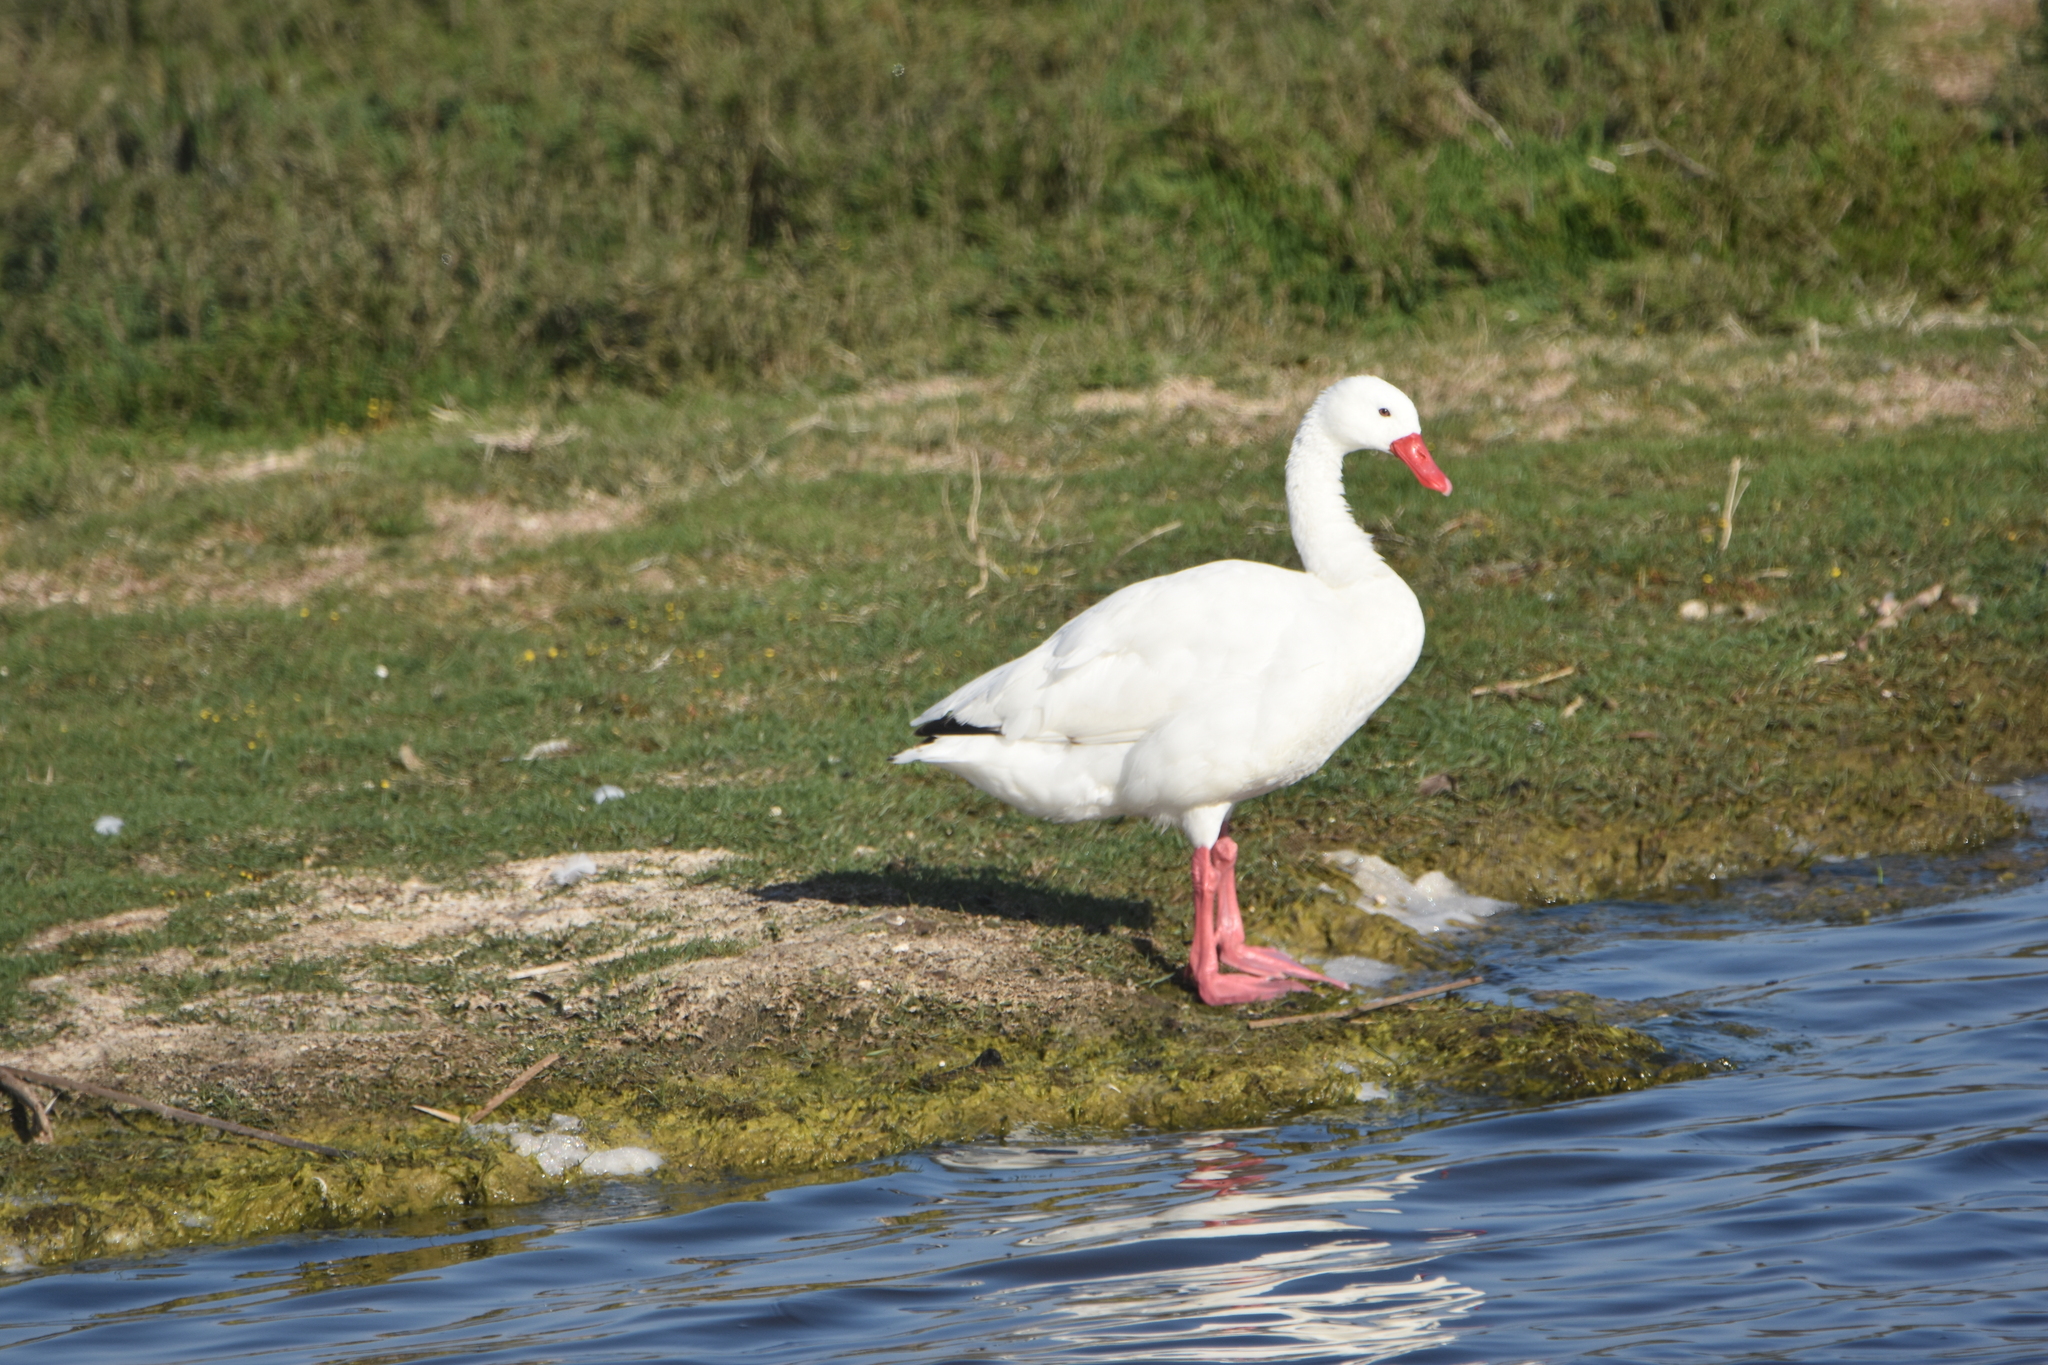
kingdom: Animalia
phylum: Chordata
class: Aves
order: Anseriformes
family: Anatidae
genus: Coscoroba
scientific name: Coscoroba coscoroba
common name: Coscoroba swan
